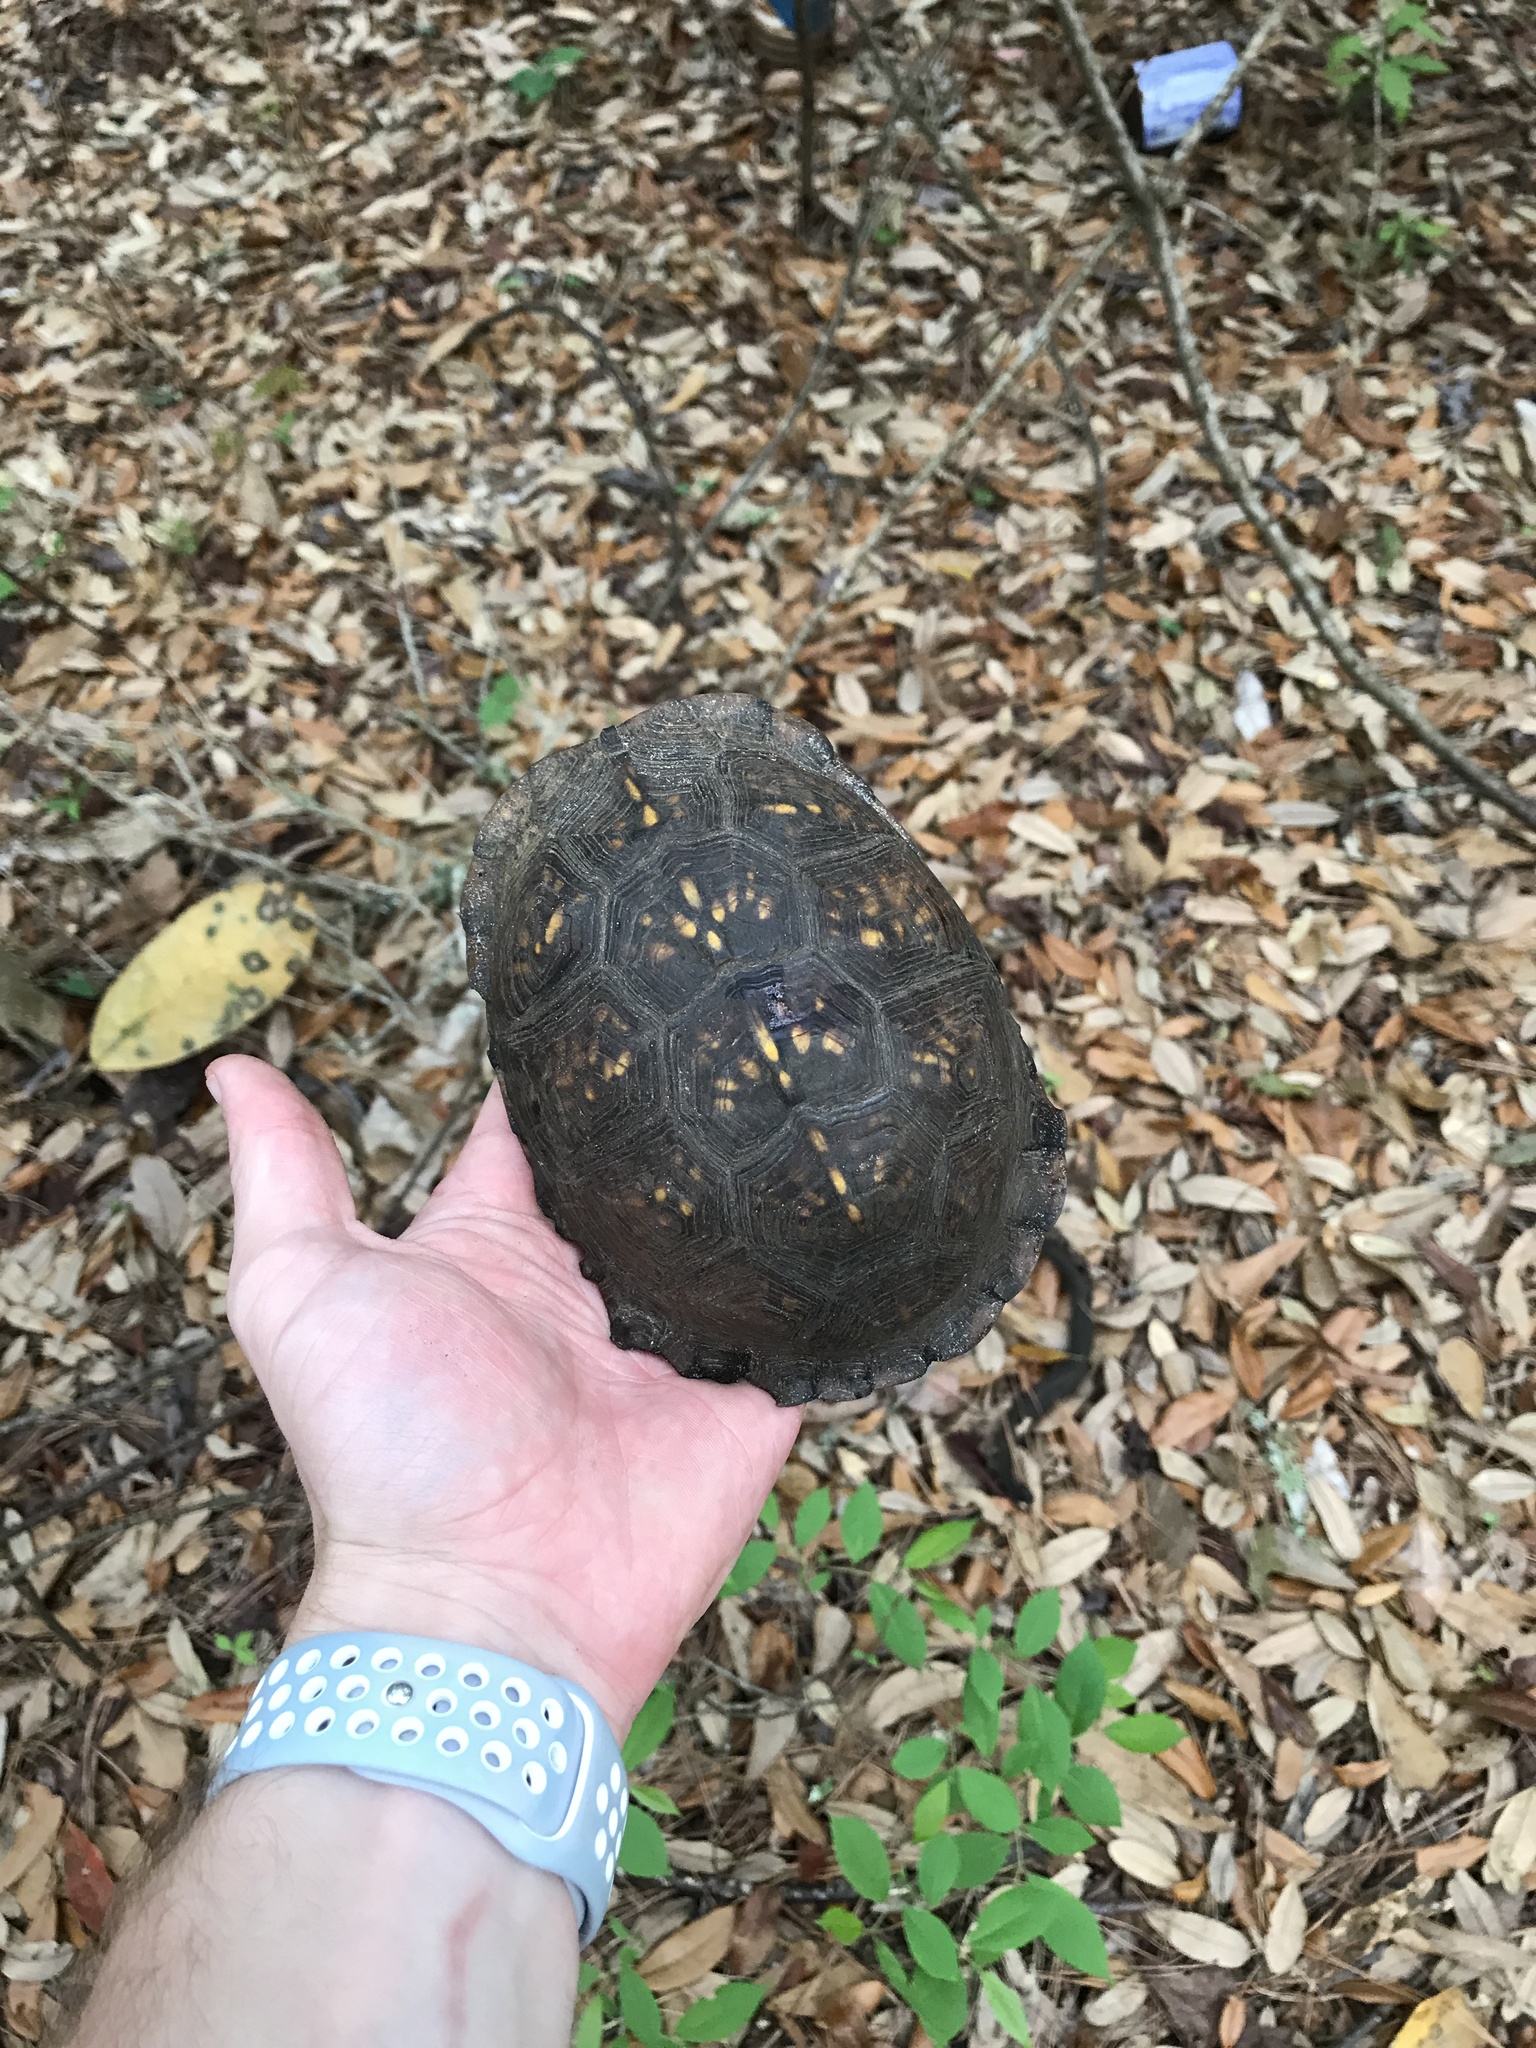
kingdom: Animalia
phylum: Chordata
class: Testudines
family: Emydidae
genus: Terrapene
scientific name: Terrapene carolina
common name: Common box turtle
